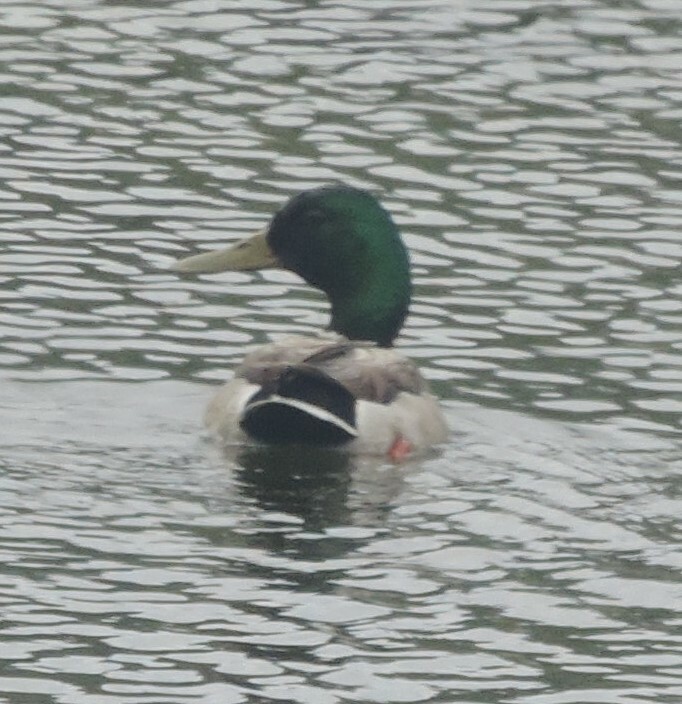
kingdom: Animalia
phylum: Chordata
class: Aves
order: Anseriformes
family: Anatidae
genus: Anas
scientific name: Anas platyrhynchos
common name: Mallard
